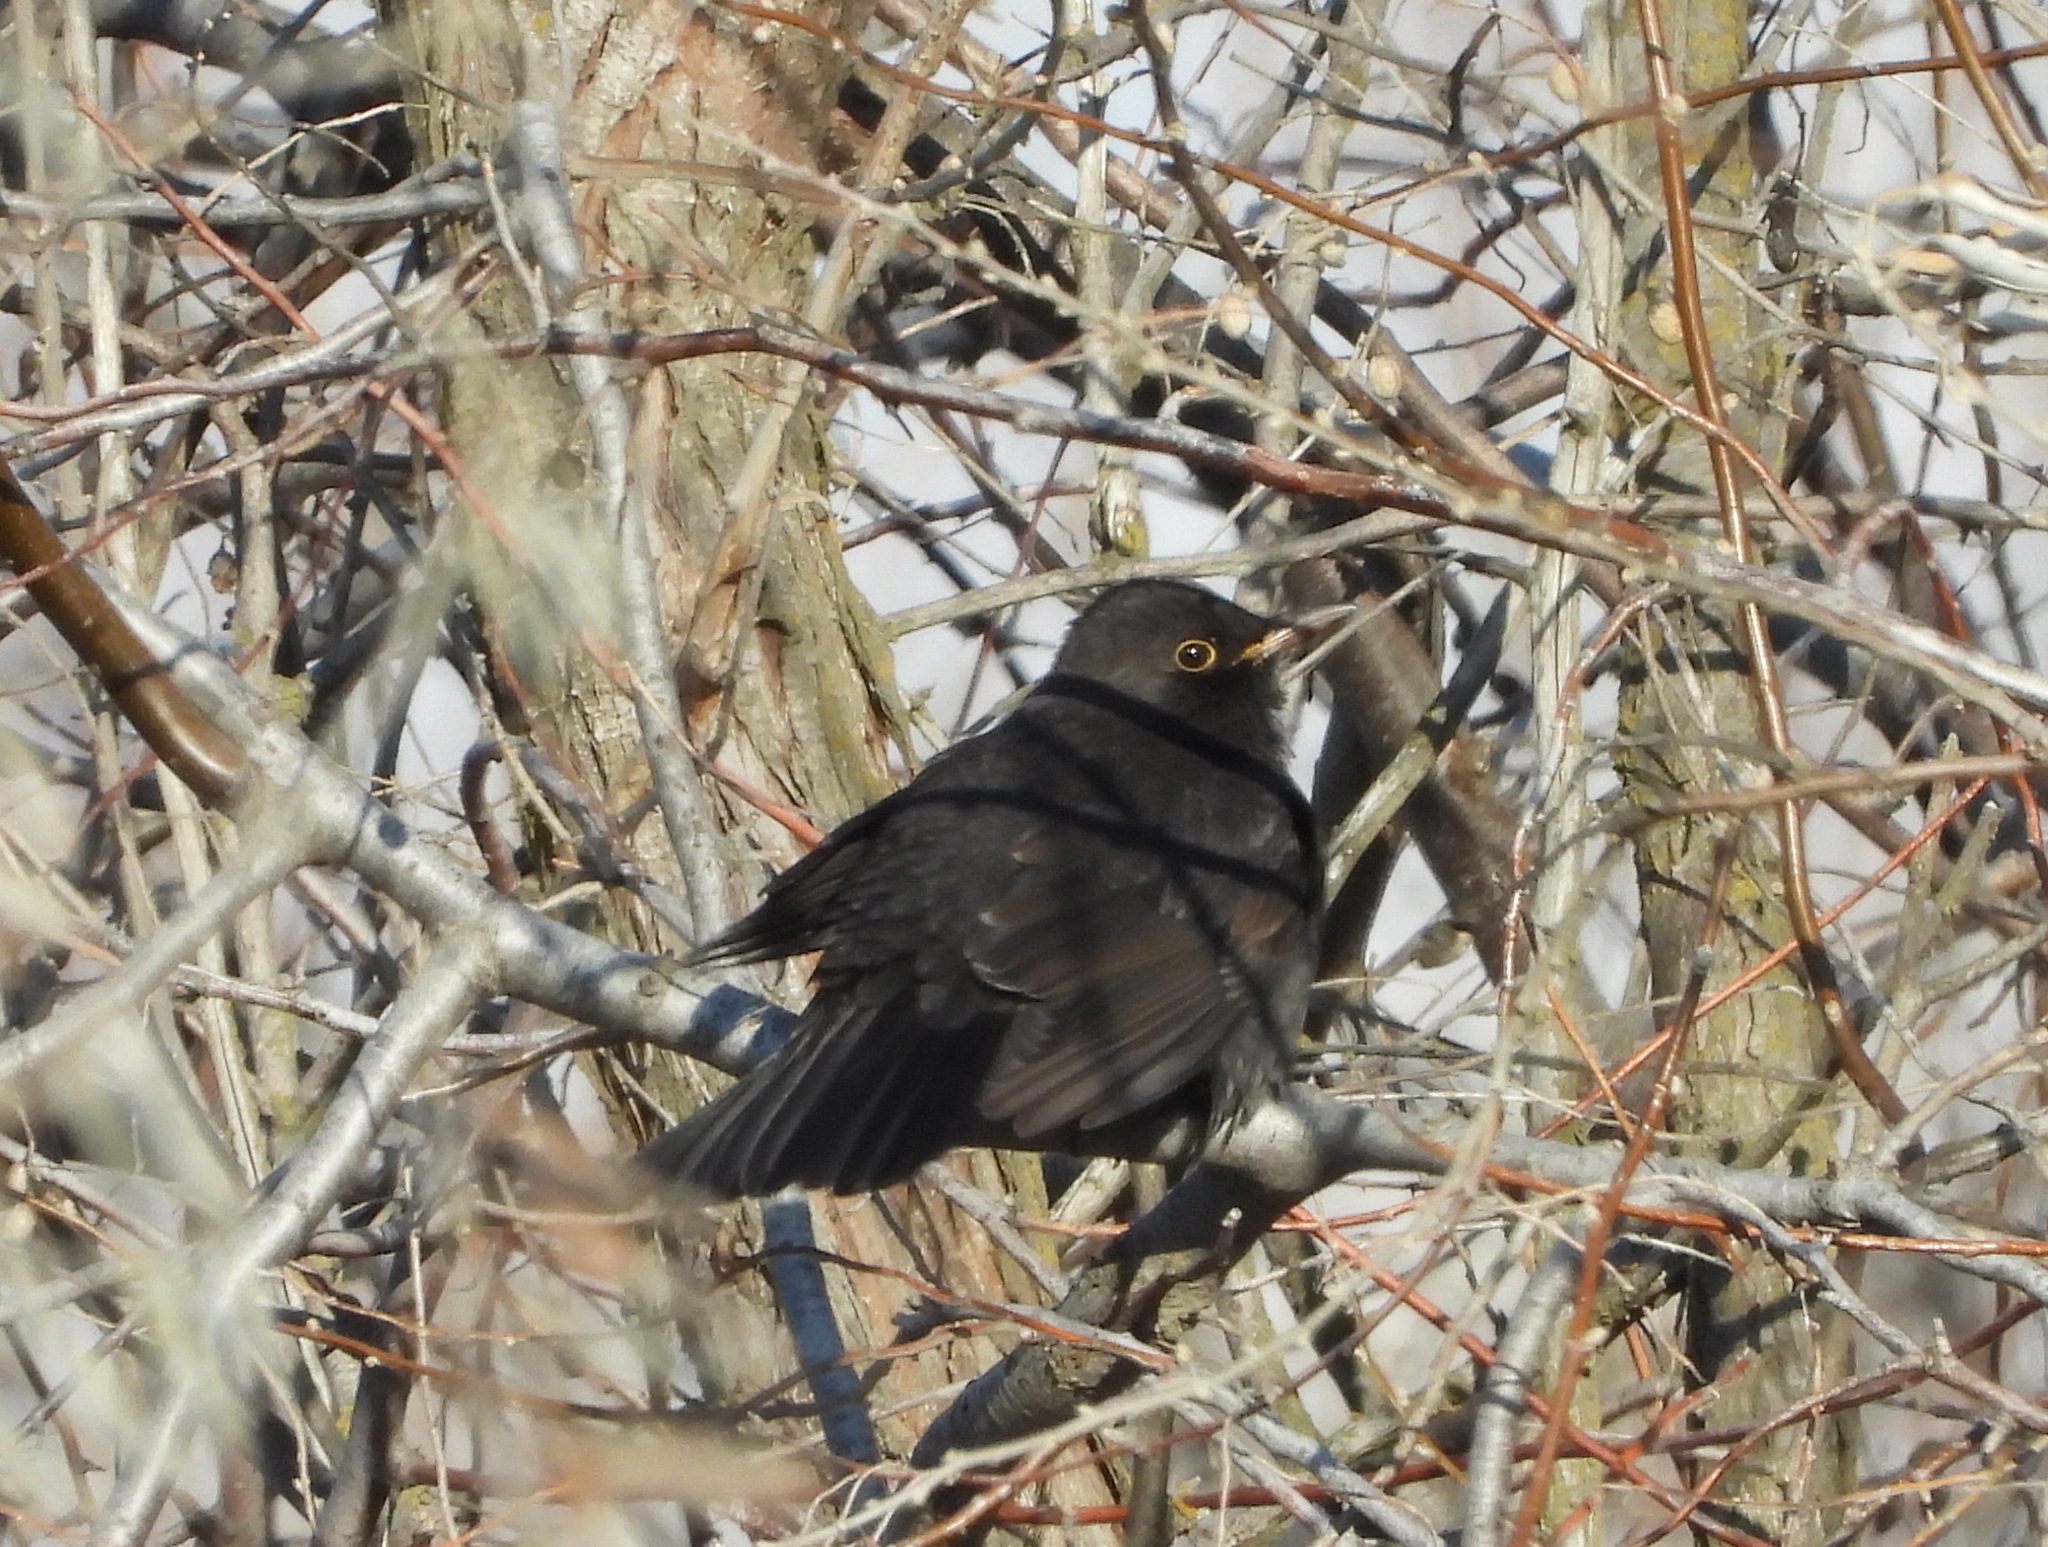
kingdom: Animalia
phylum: Chordata
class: Aves
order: Passeriformes
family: Turdidae
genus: Turdus
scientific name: Turdus merula
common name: Common blackbird
